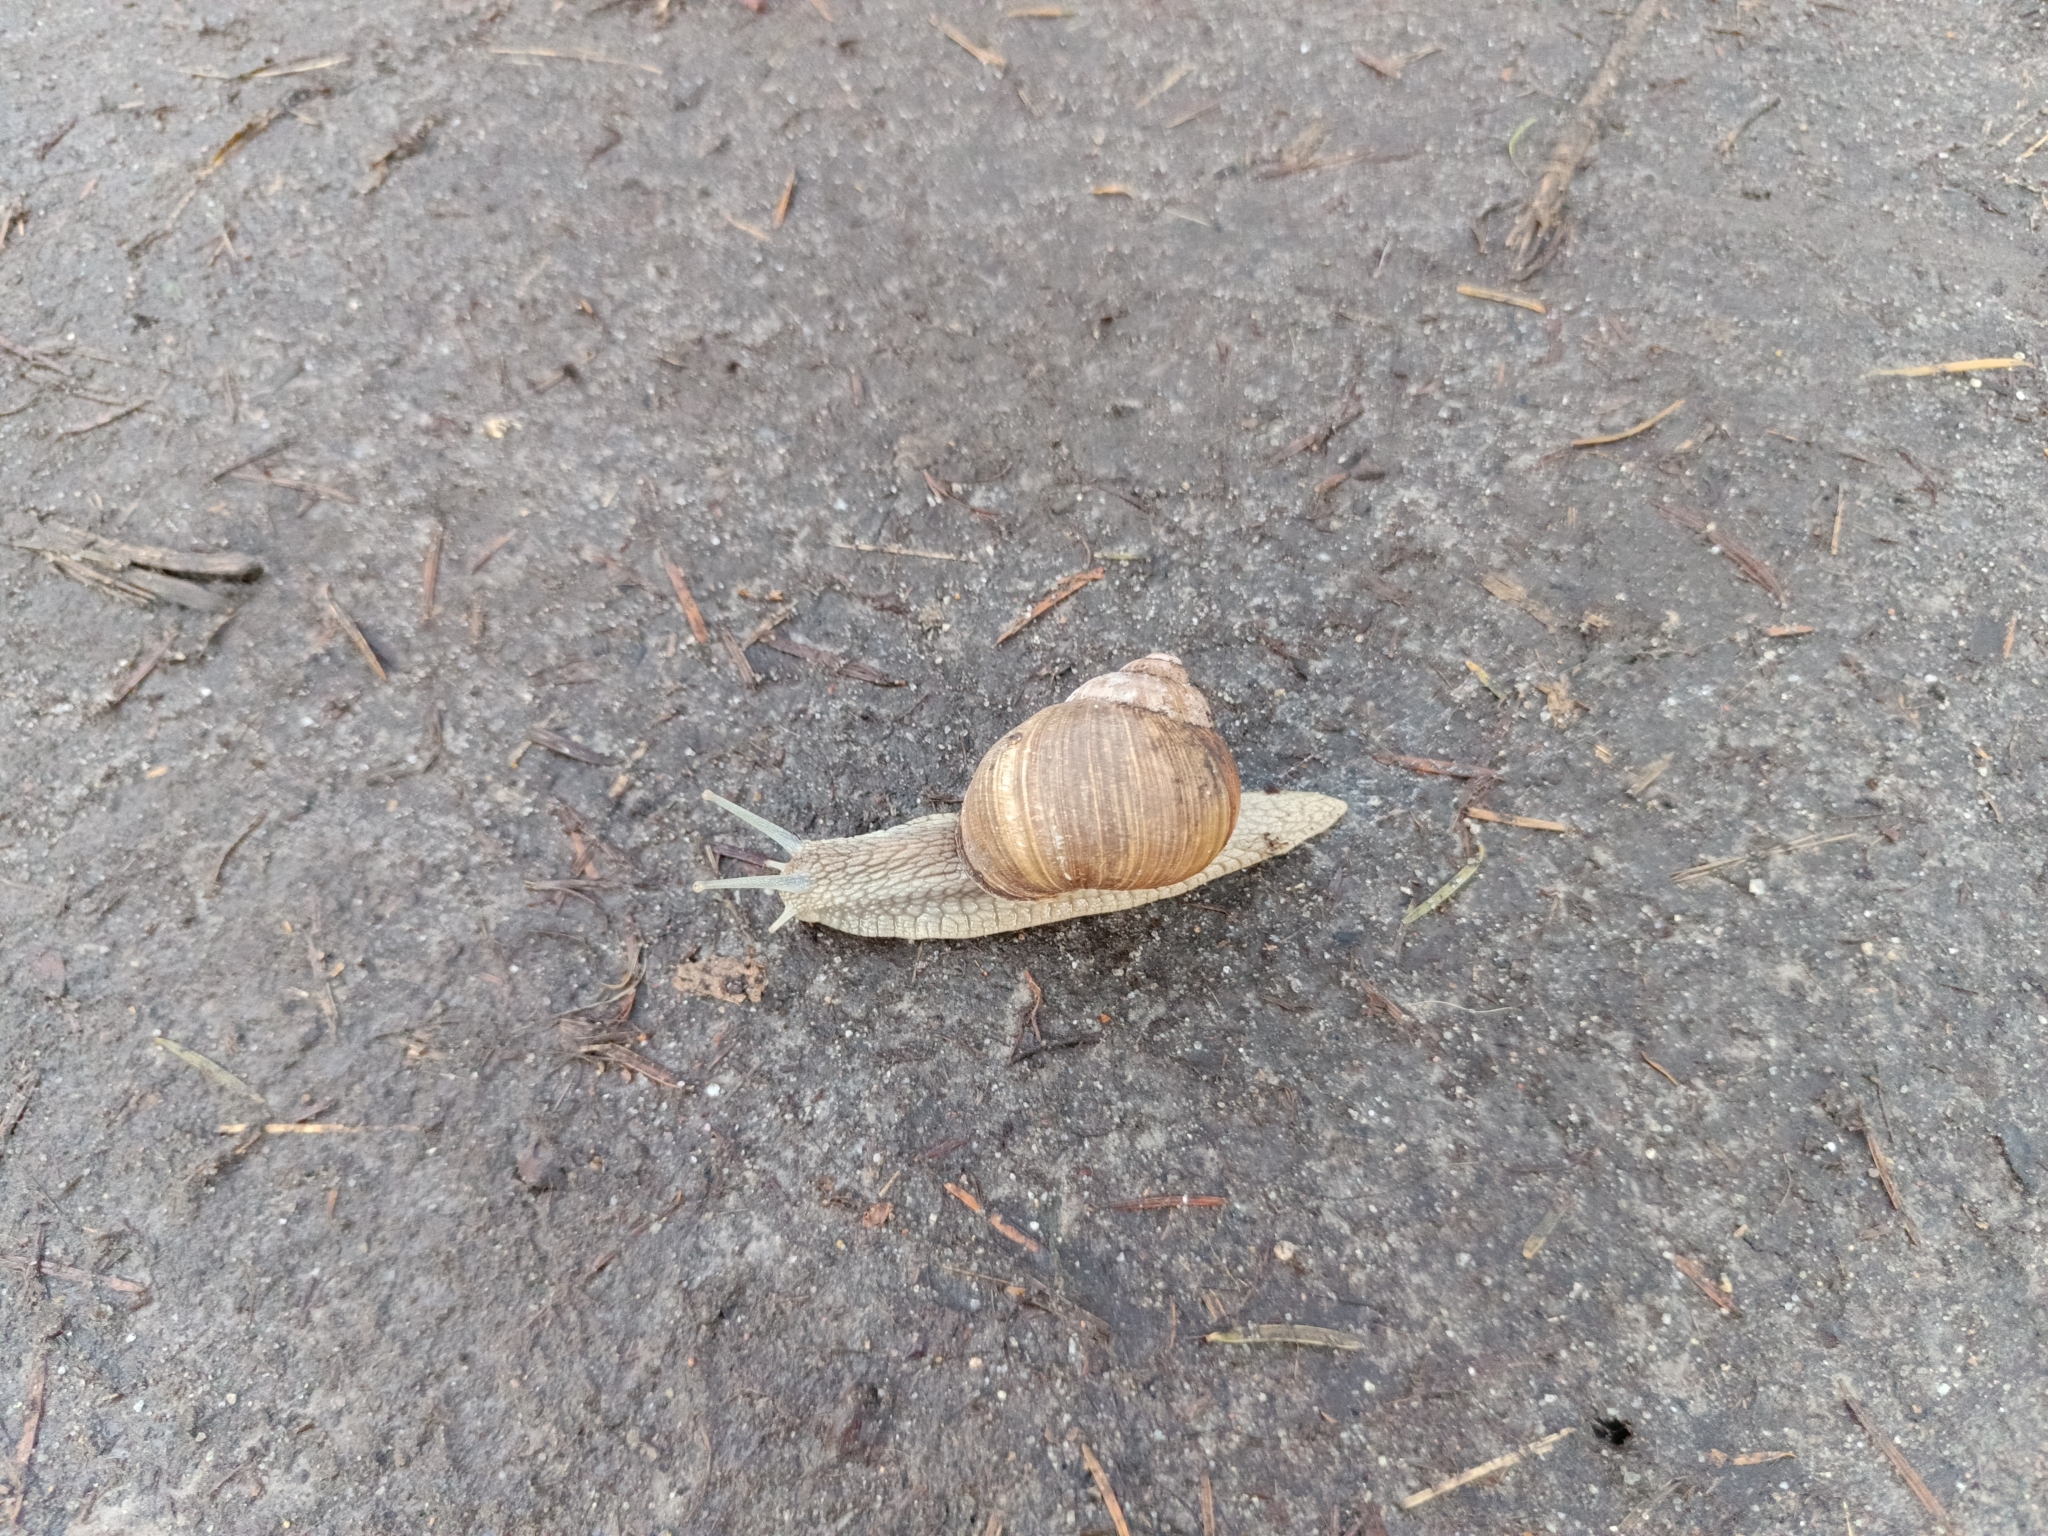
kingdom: Animalia
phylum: Mollusca
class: Gastropoda
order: Stylommatophora
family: Helicidae
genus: Helix
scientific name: Helix pomatia
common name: Roman snail
